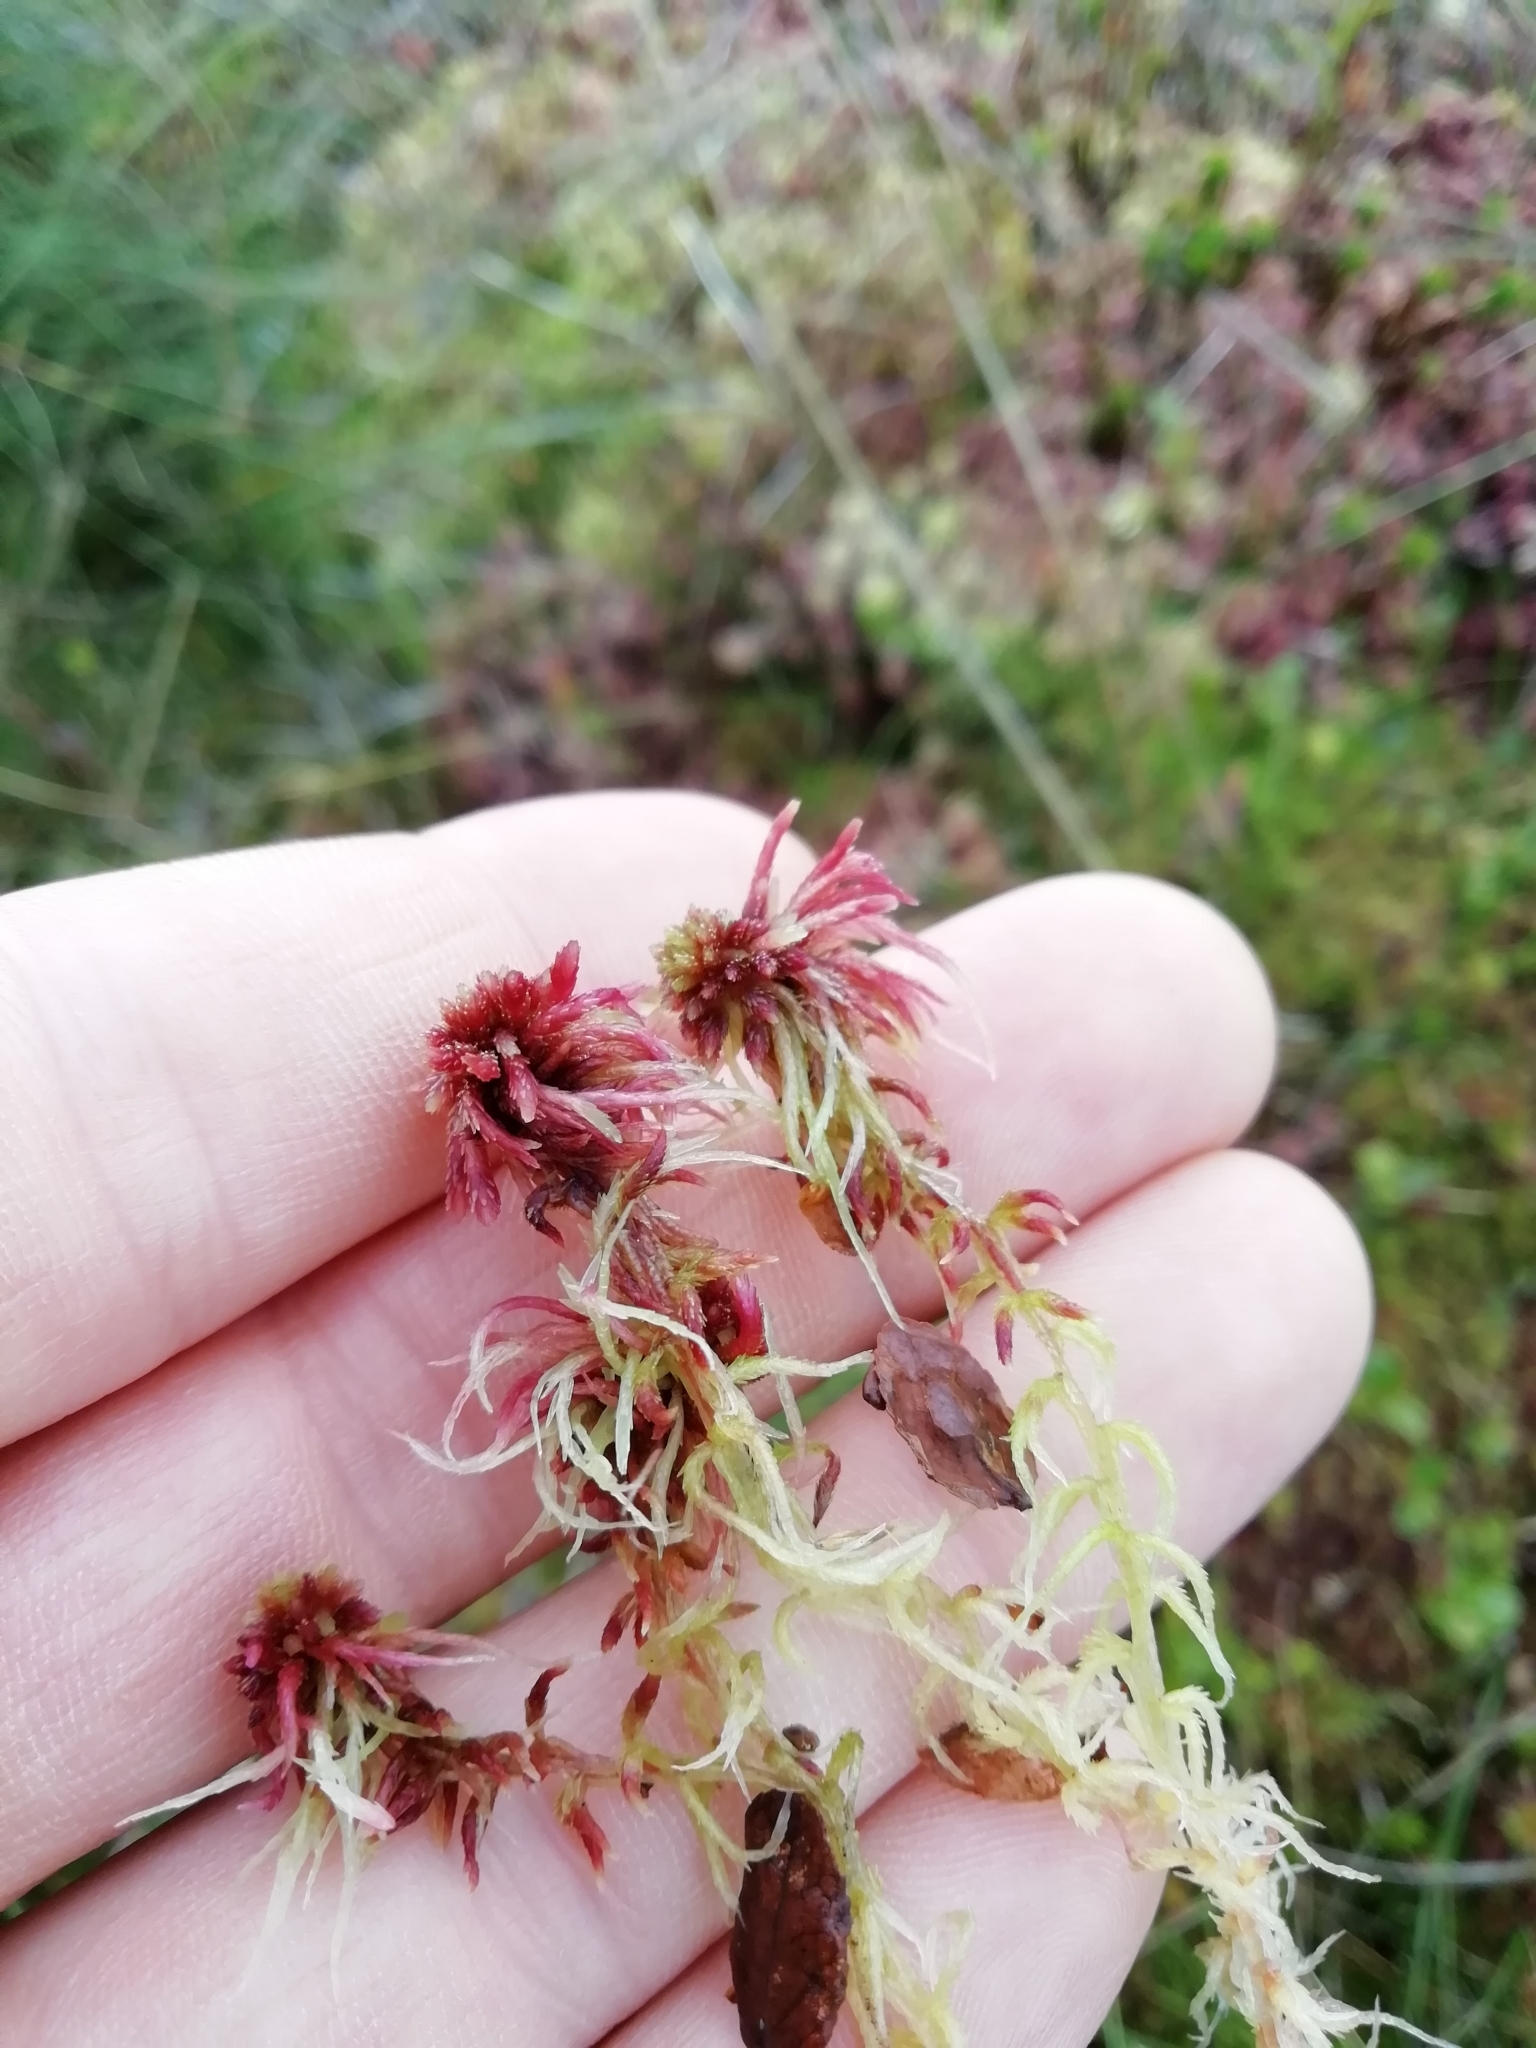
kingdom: Plantae
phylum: Bryophyta
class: Sphagnopsida
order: Sphagnales
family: Sphagnaceae
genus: Sphagnum
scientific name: Sphagnum capillifolium
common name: Small red peat moss
